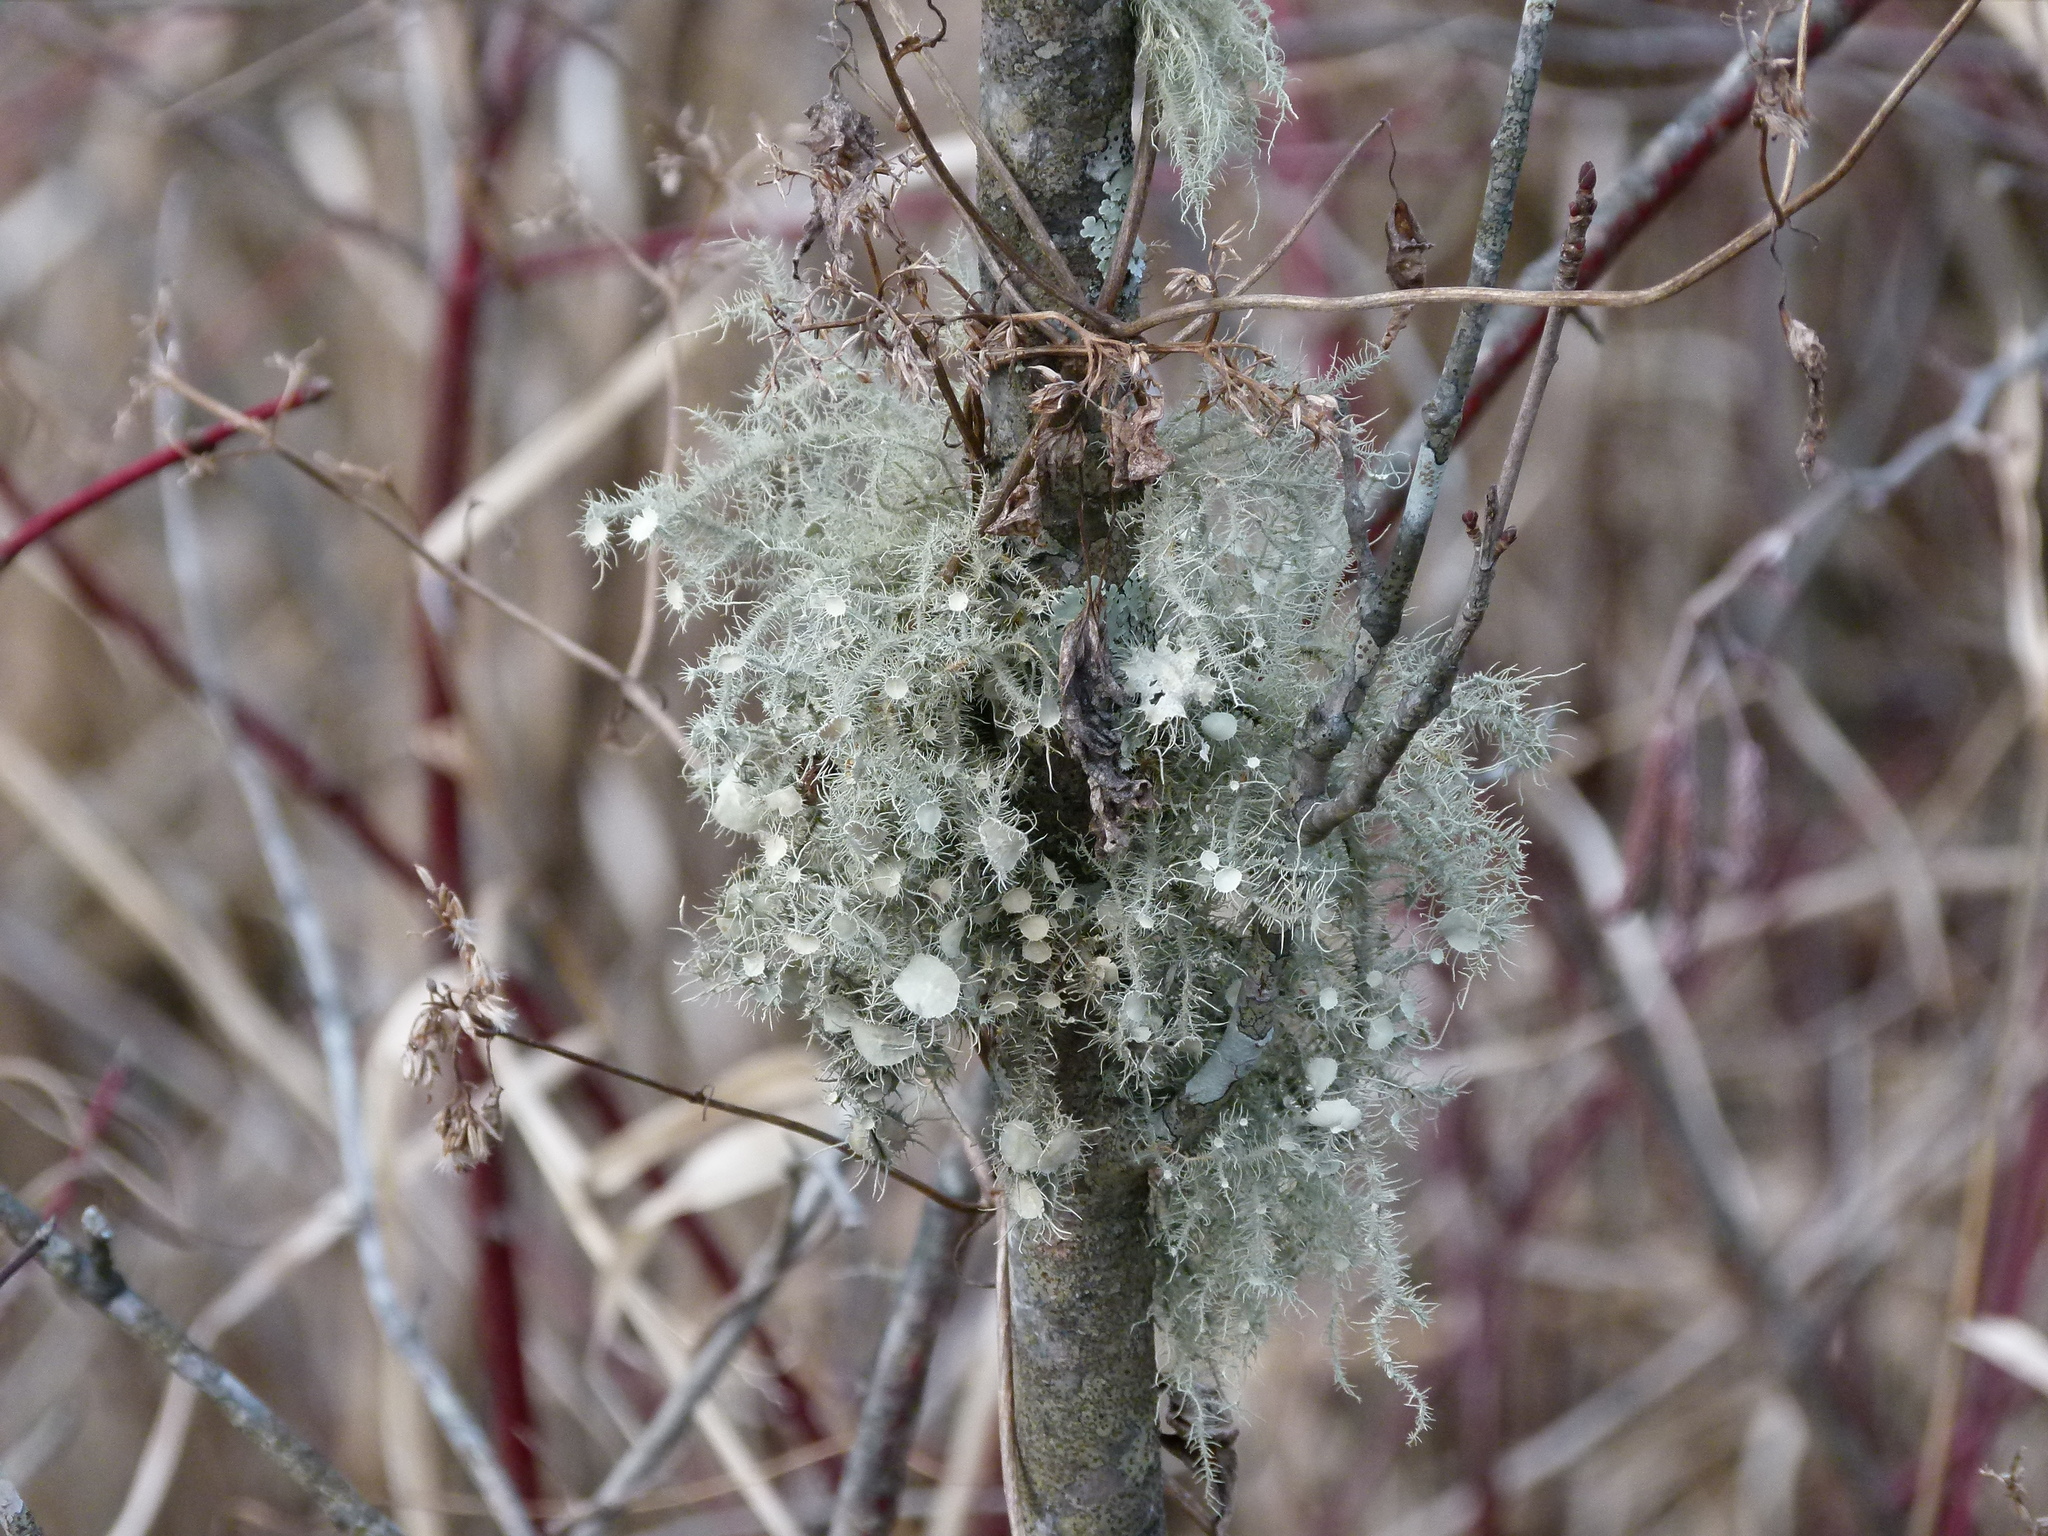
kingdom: Fungi
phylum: Ascomycota
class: Lecanoromycetes
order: Lecanorales
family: Parmeliaceae
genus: Usnea
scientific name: Usnea strigosa
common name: Bushy beard lichen
